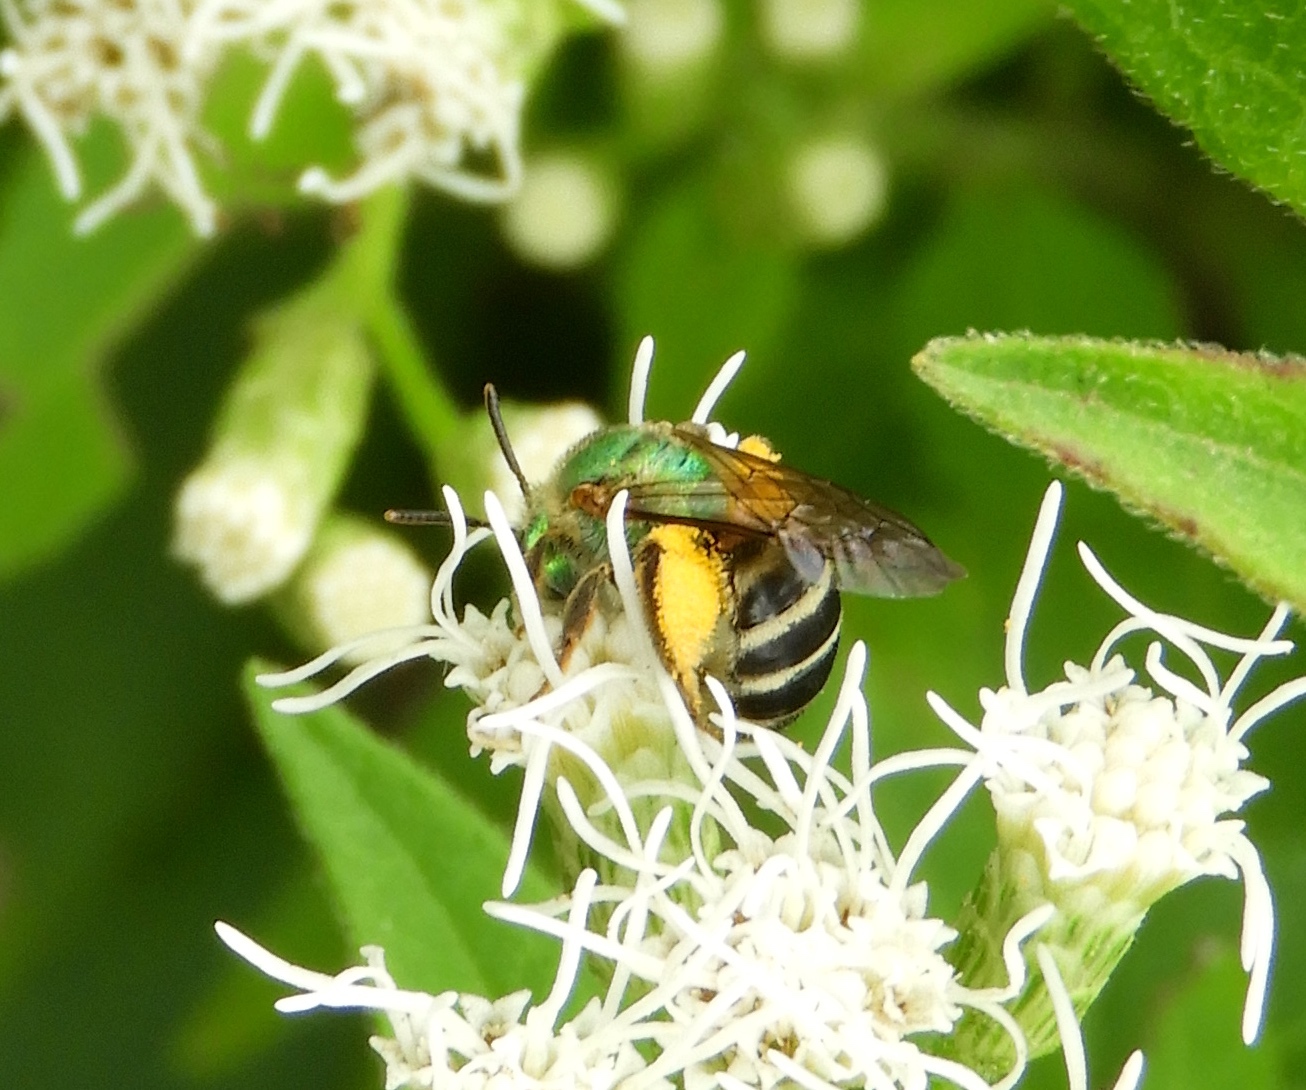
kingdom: Animalia
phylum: Arthropoda
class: Insecta
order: Hymenoptera
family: Halictidae
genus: Agapostemon
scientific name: Agapostemon nasutus
